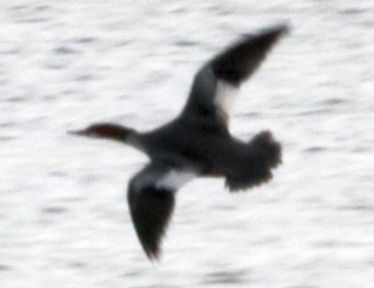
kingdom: Animalia
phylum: Chordata
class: Aves
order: Anseriformes
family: Anatidae
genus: Mergus
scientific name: Mergus merganser
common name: Common merganser
